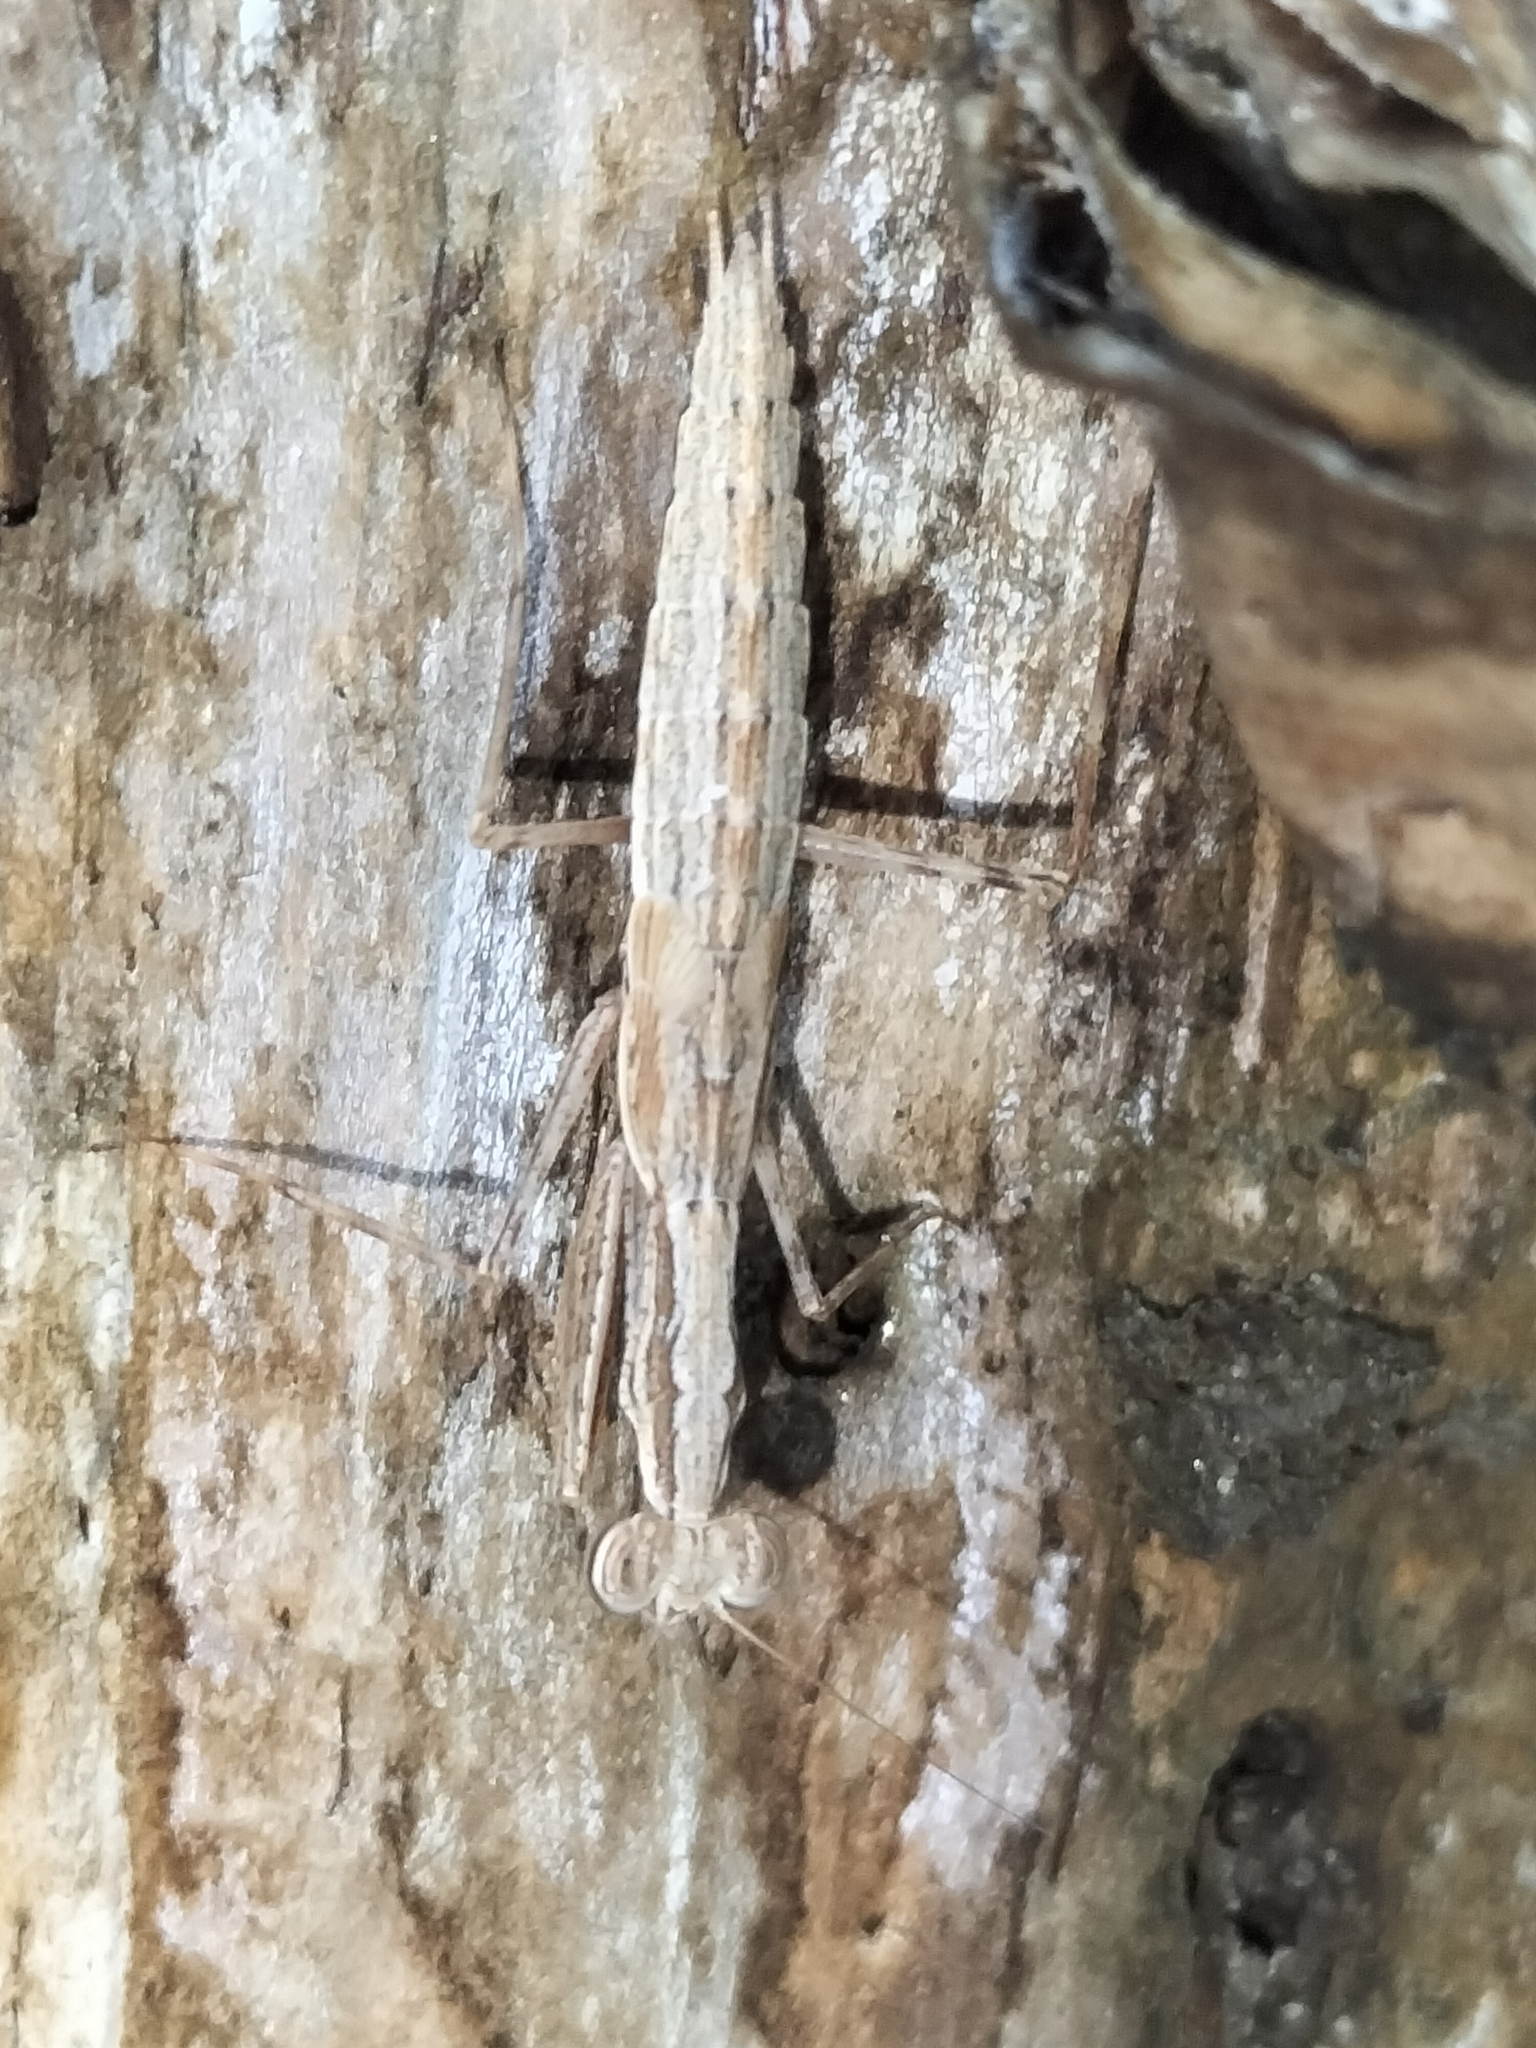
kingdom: Animalia
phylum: Arthropoda
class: Insecta
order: Mantodea
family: Nanomantidae
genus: Ima
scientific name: Ima fusca
